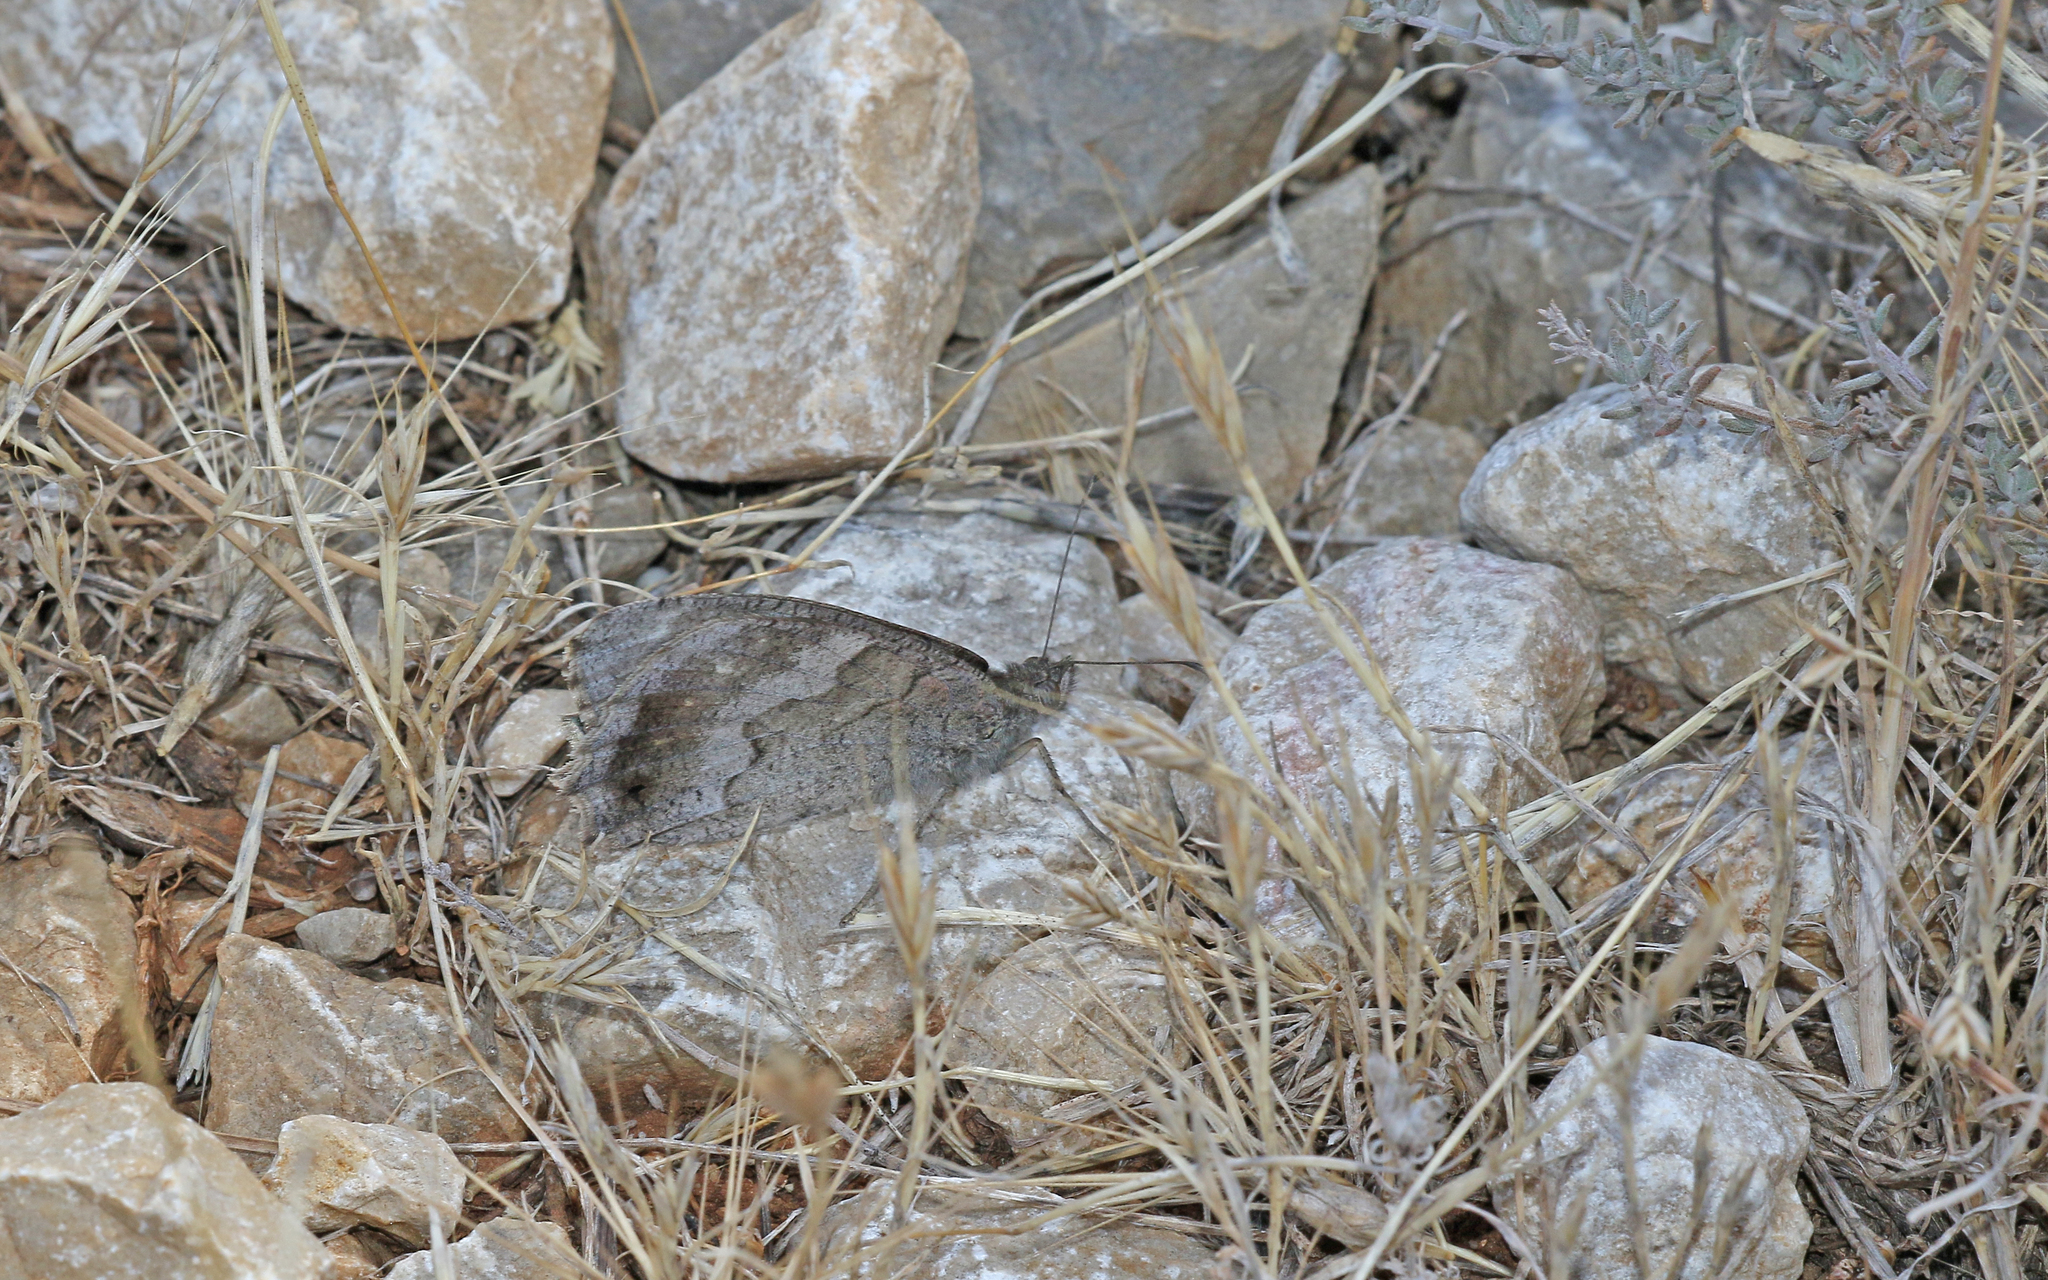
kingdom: Animalia
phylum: Arthropoda
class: Insecta
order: Lepidoptera
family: Nymphalidae
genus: Hipparchia
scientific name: Hipparchia statilinus
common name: Tree grayling
